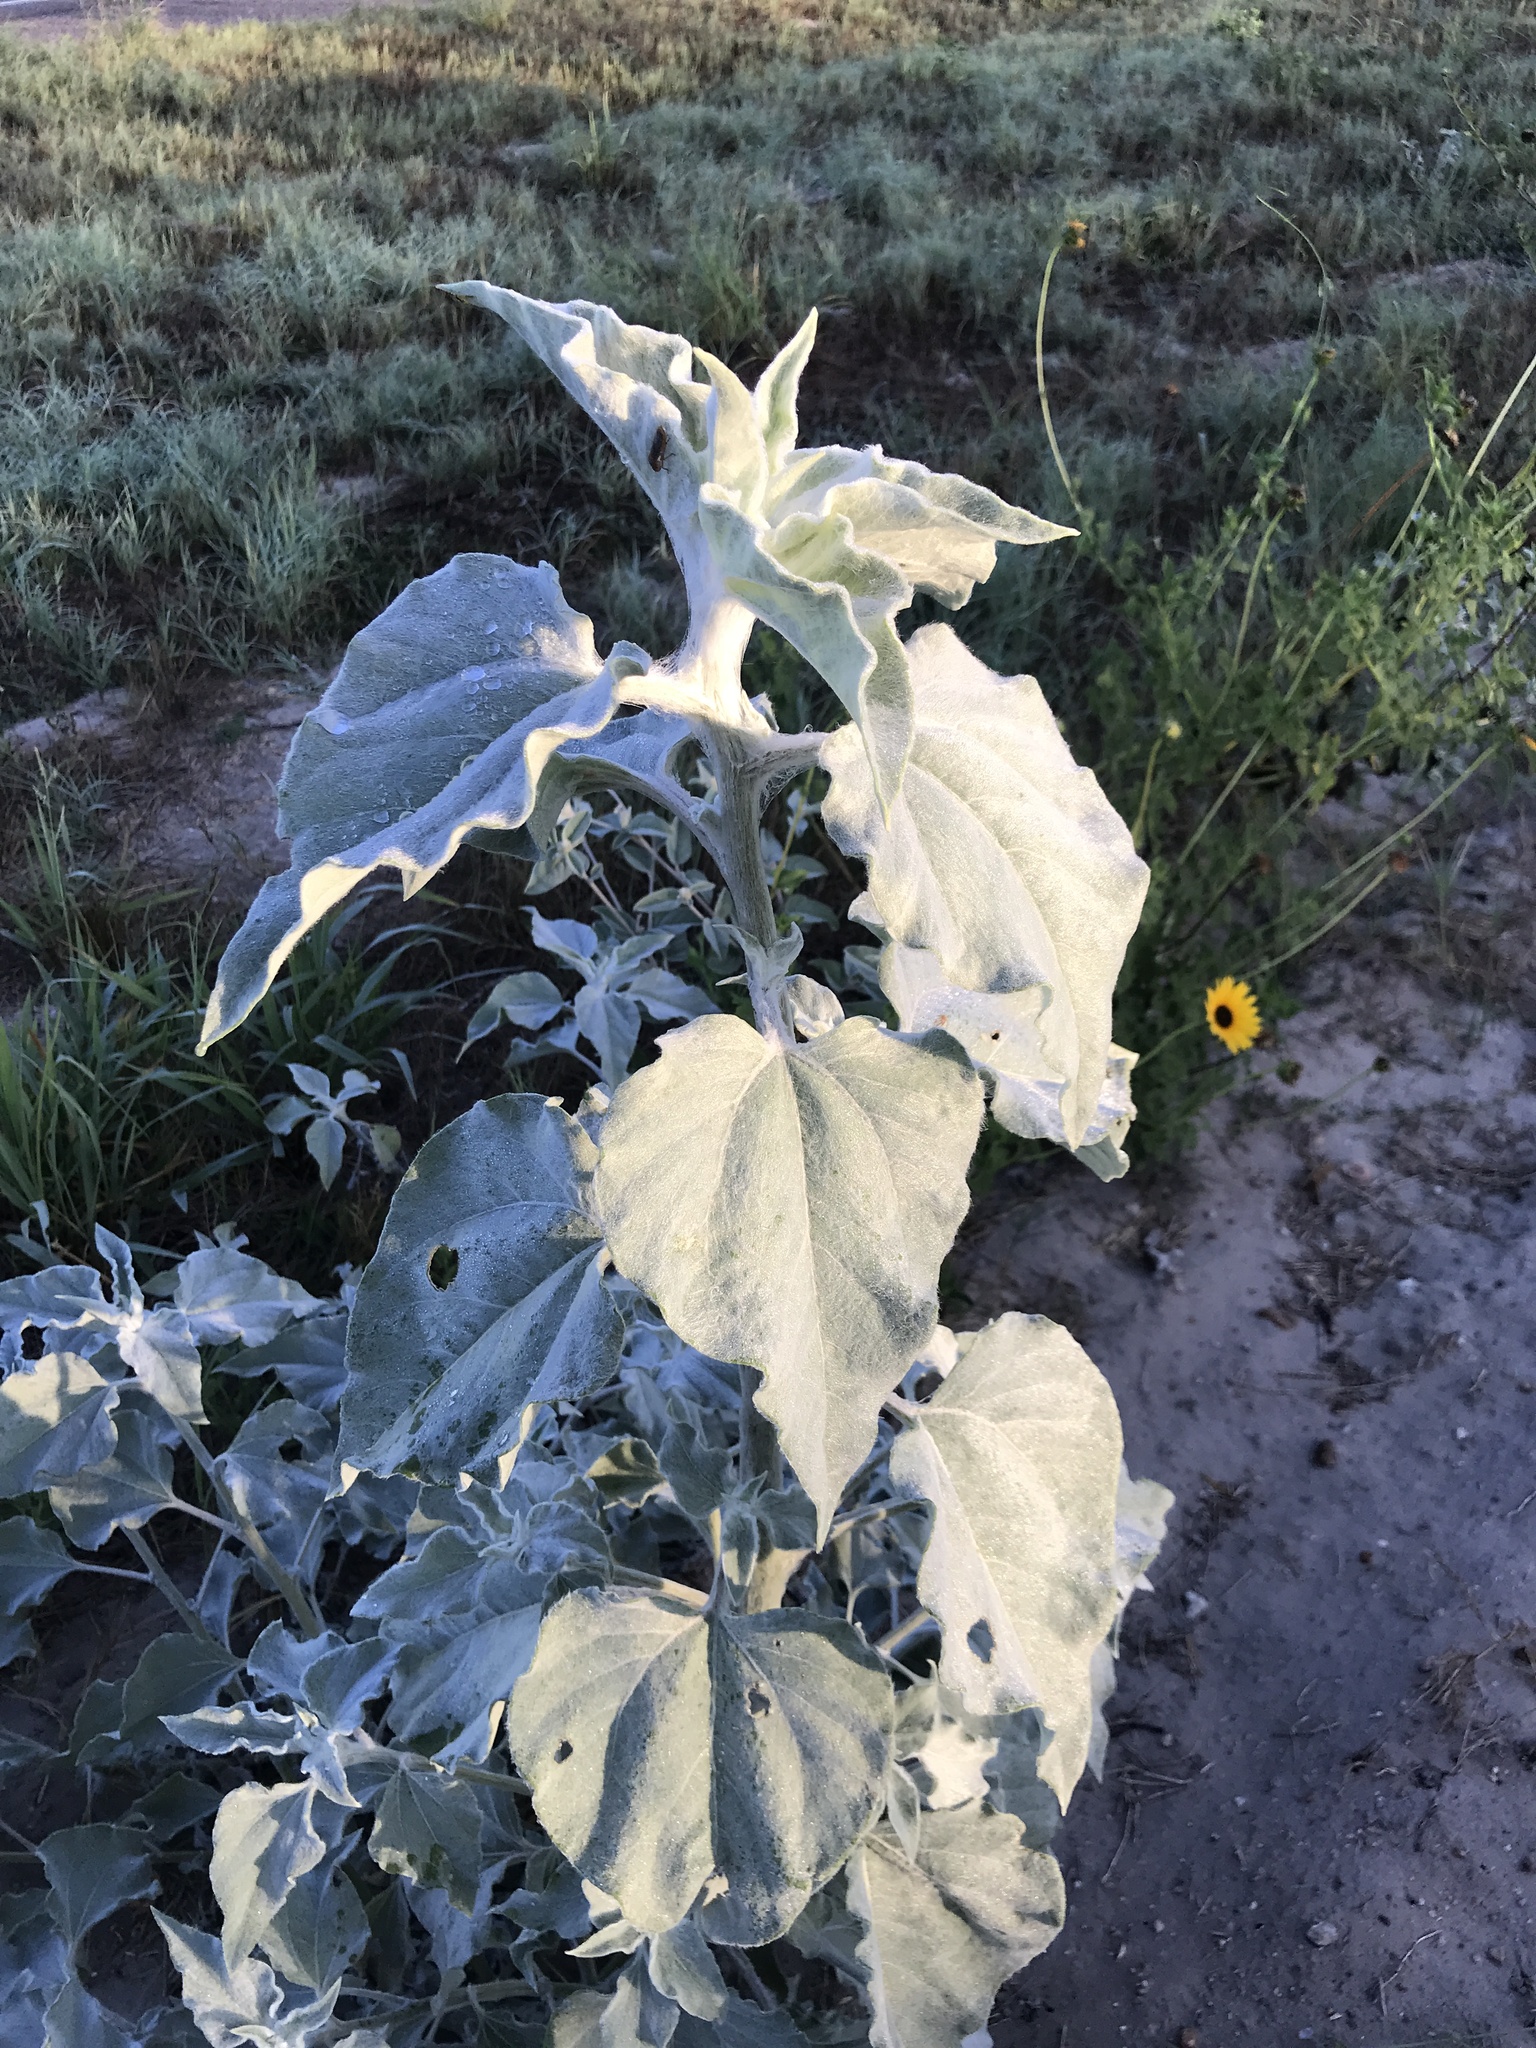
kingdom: Plantae
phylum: Tracheophyta
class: Magnoliopsida
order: Asterales
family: Asteraceae
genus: Helianthus
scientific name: Helianthus argophyllus
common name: Silverleaf sunflower
